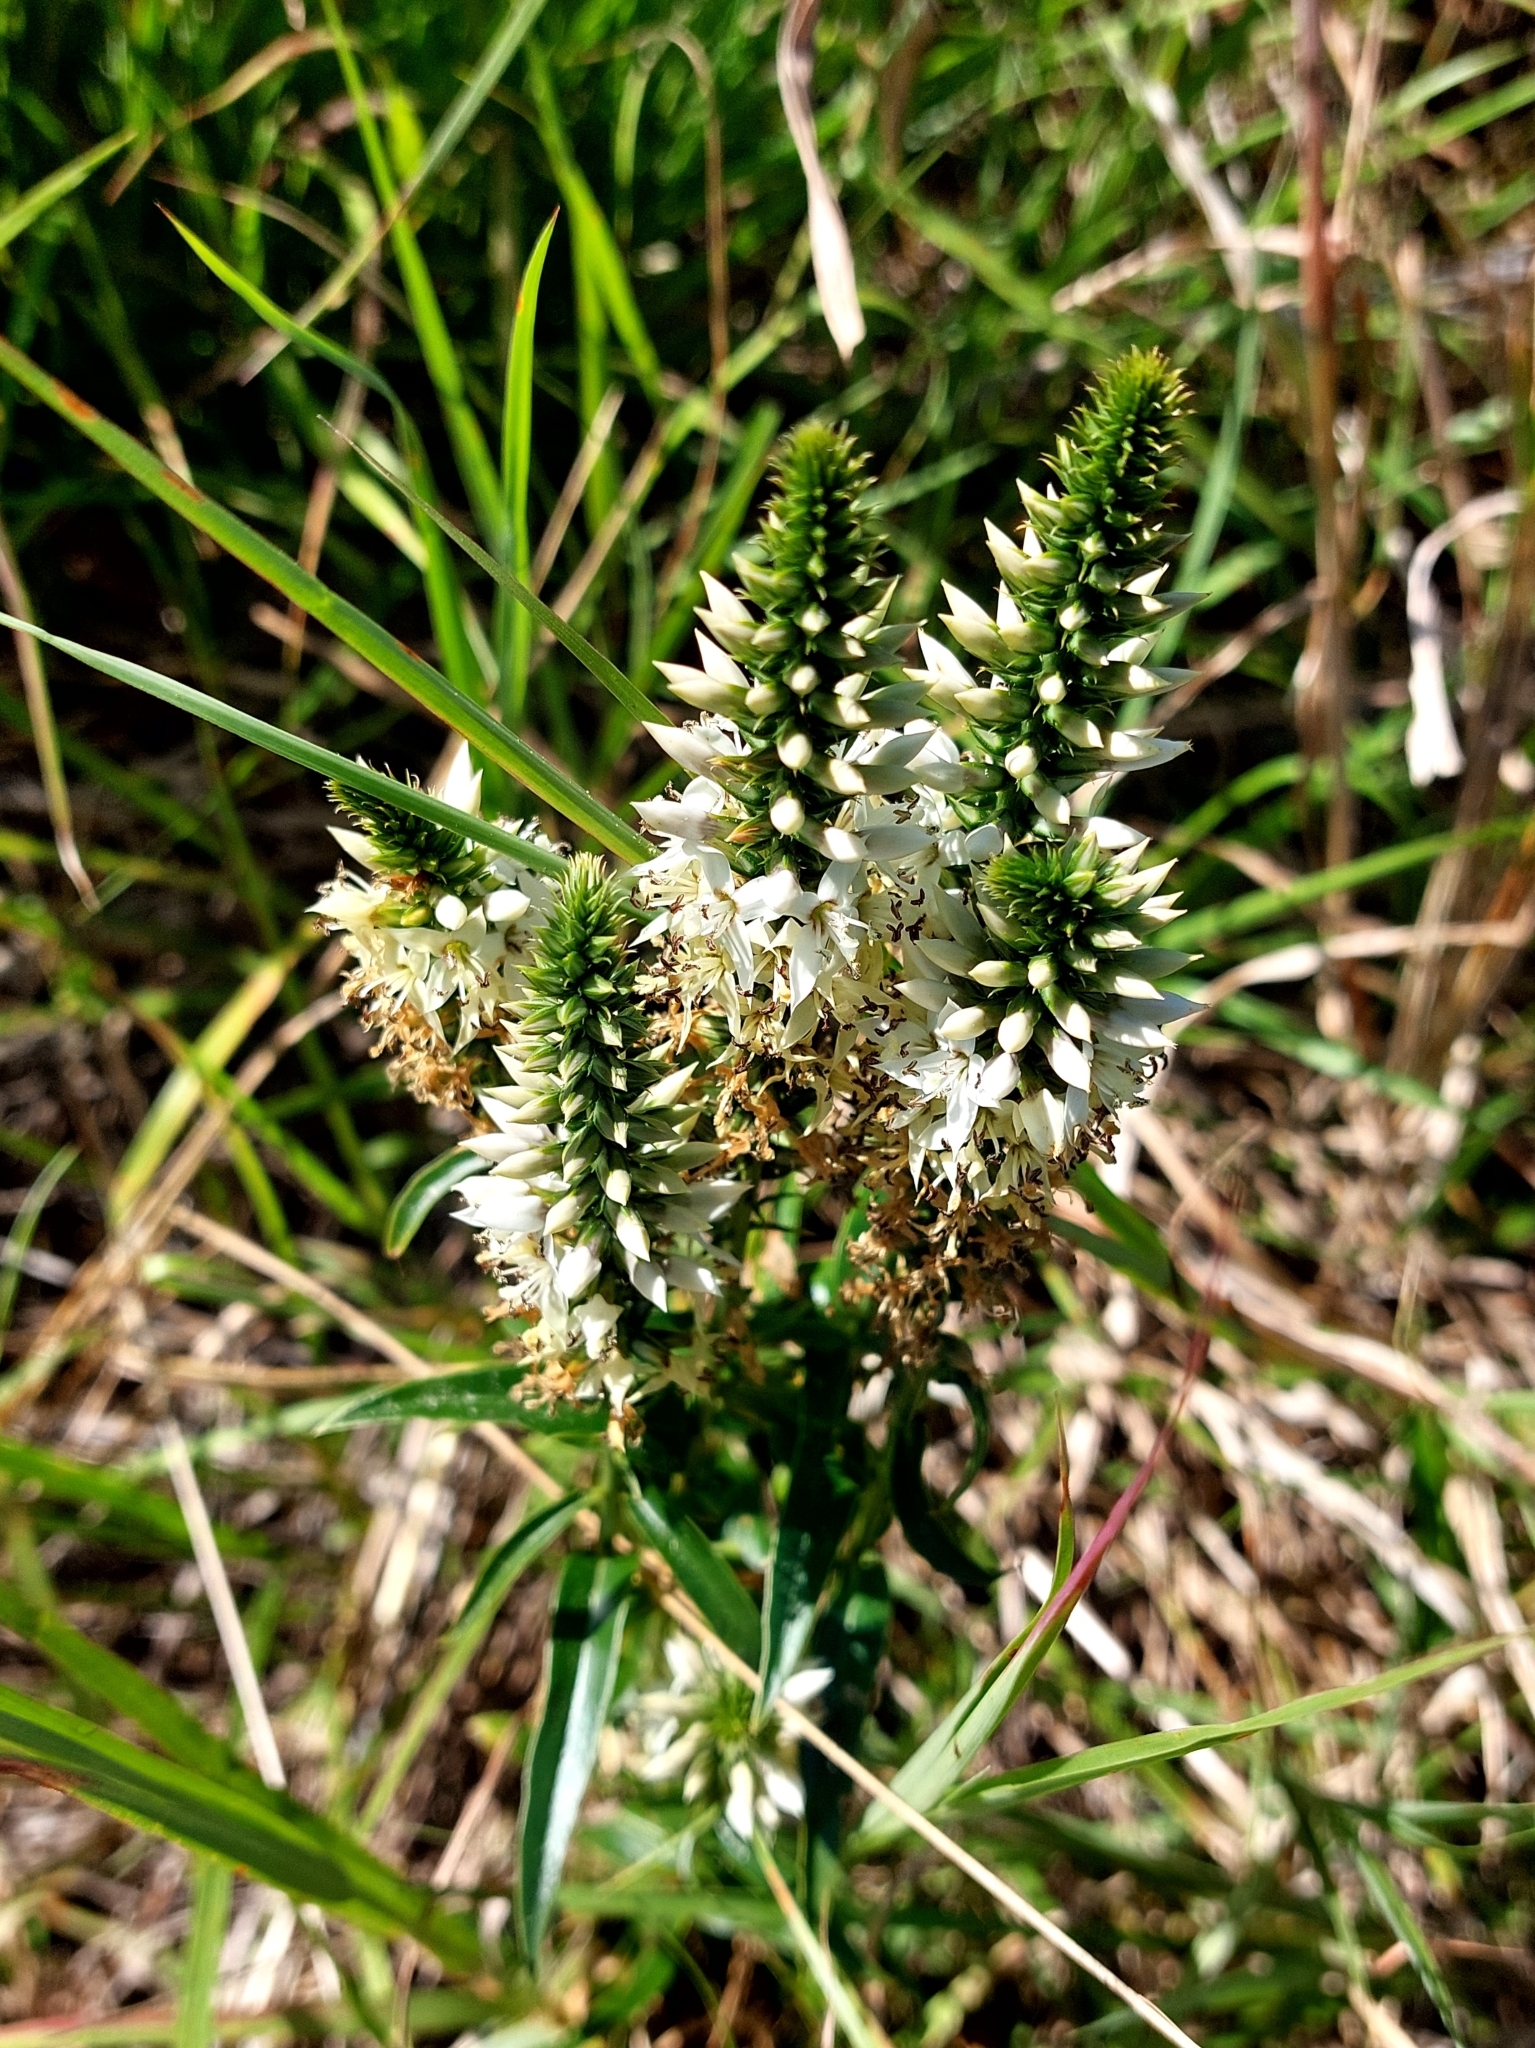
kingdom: Plantae
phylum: Tracheophyta
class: Magnoliopsida
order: Gentianales
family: Gentianaceae
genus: Coutoubea
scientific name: Coutoubea spicata
